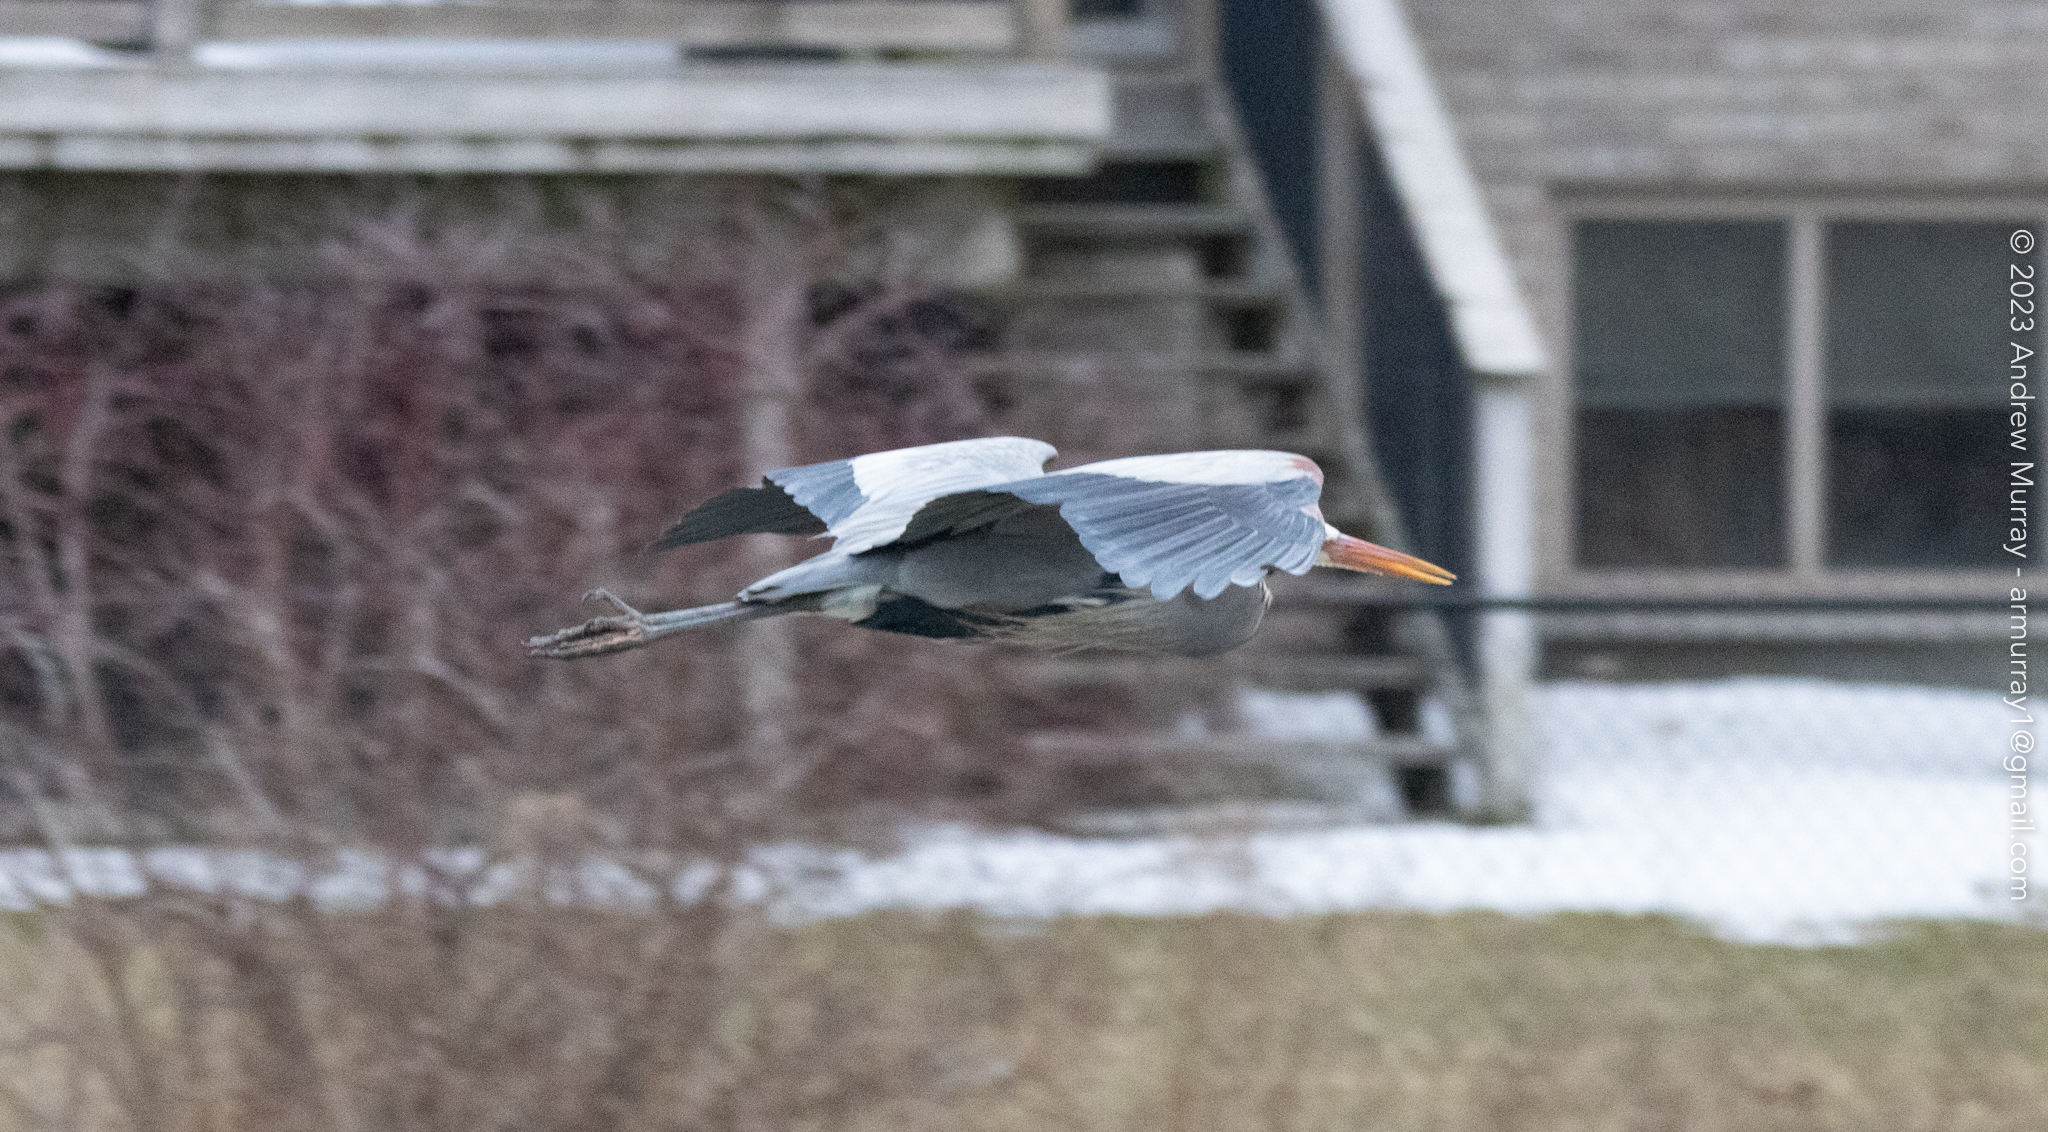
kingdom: Animalia
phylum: Chordata
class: Aves
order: Pelecaniformes
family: Ardeidae
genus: Ardea
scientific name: Ardea herodias
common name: Great blue heron
